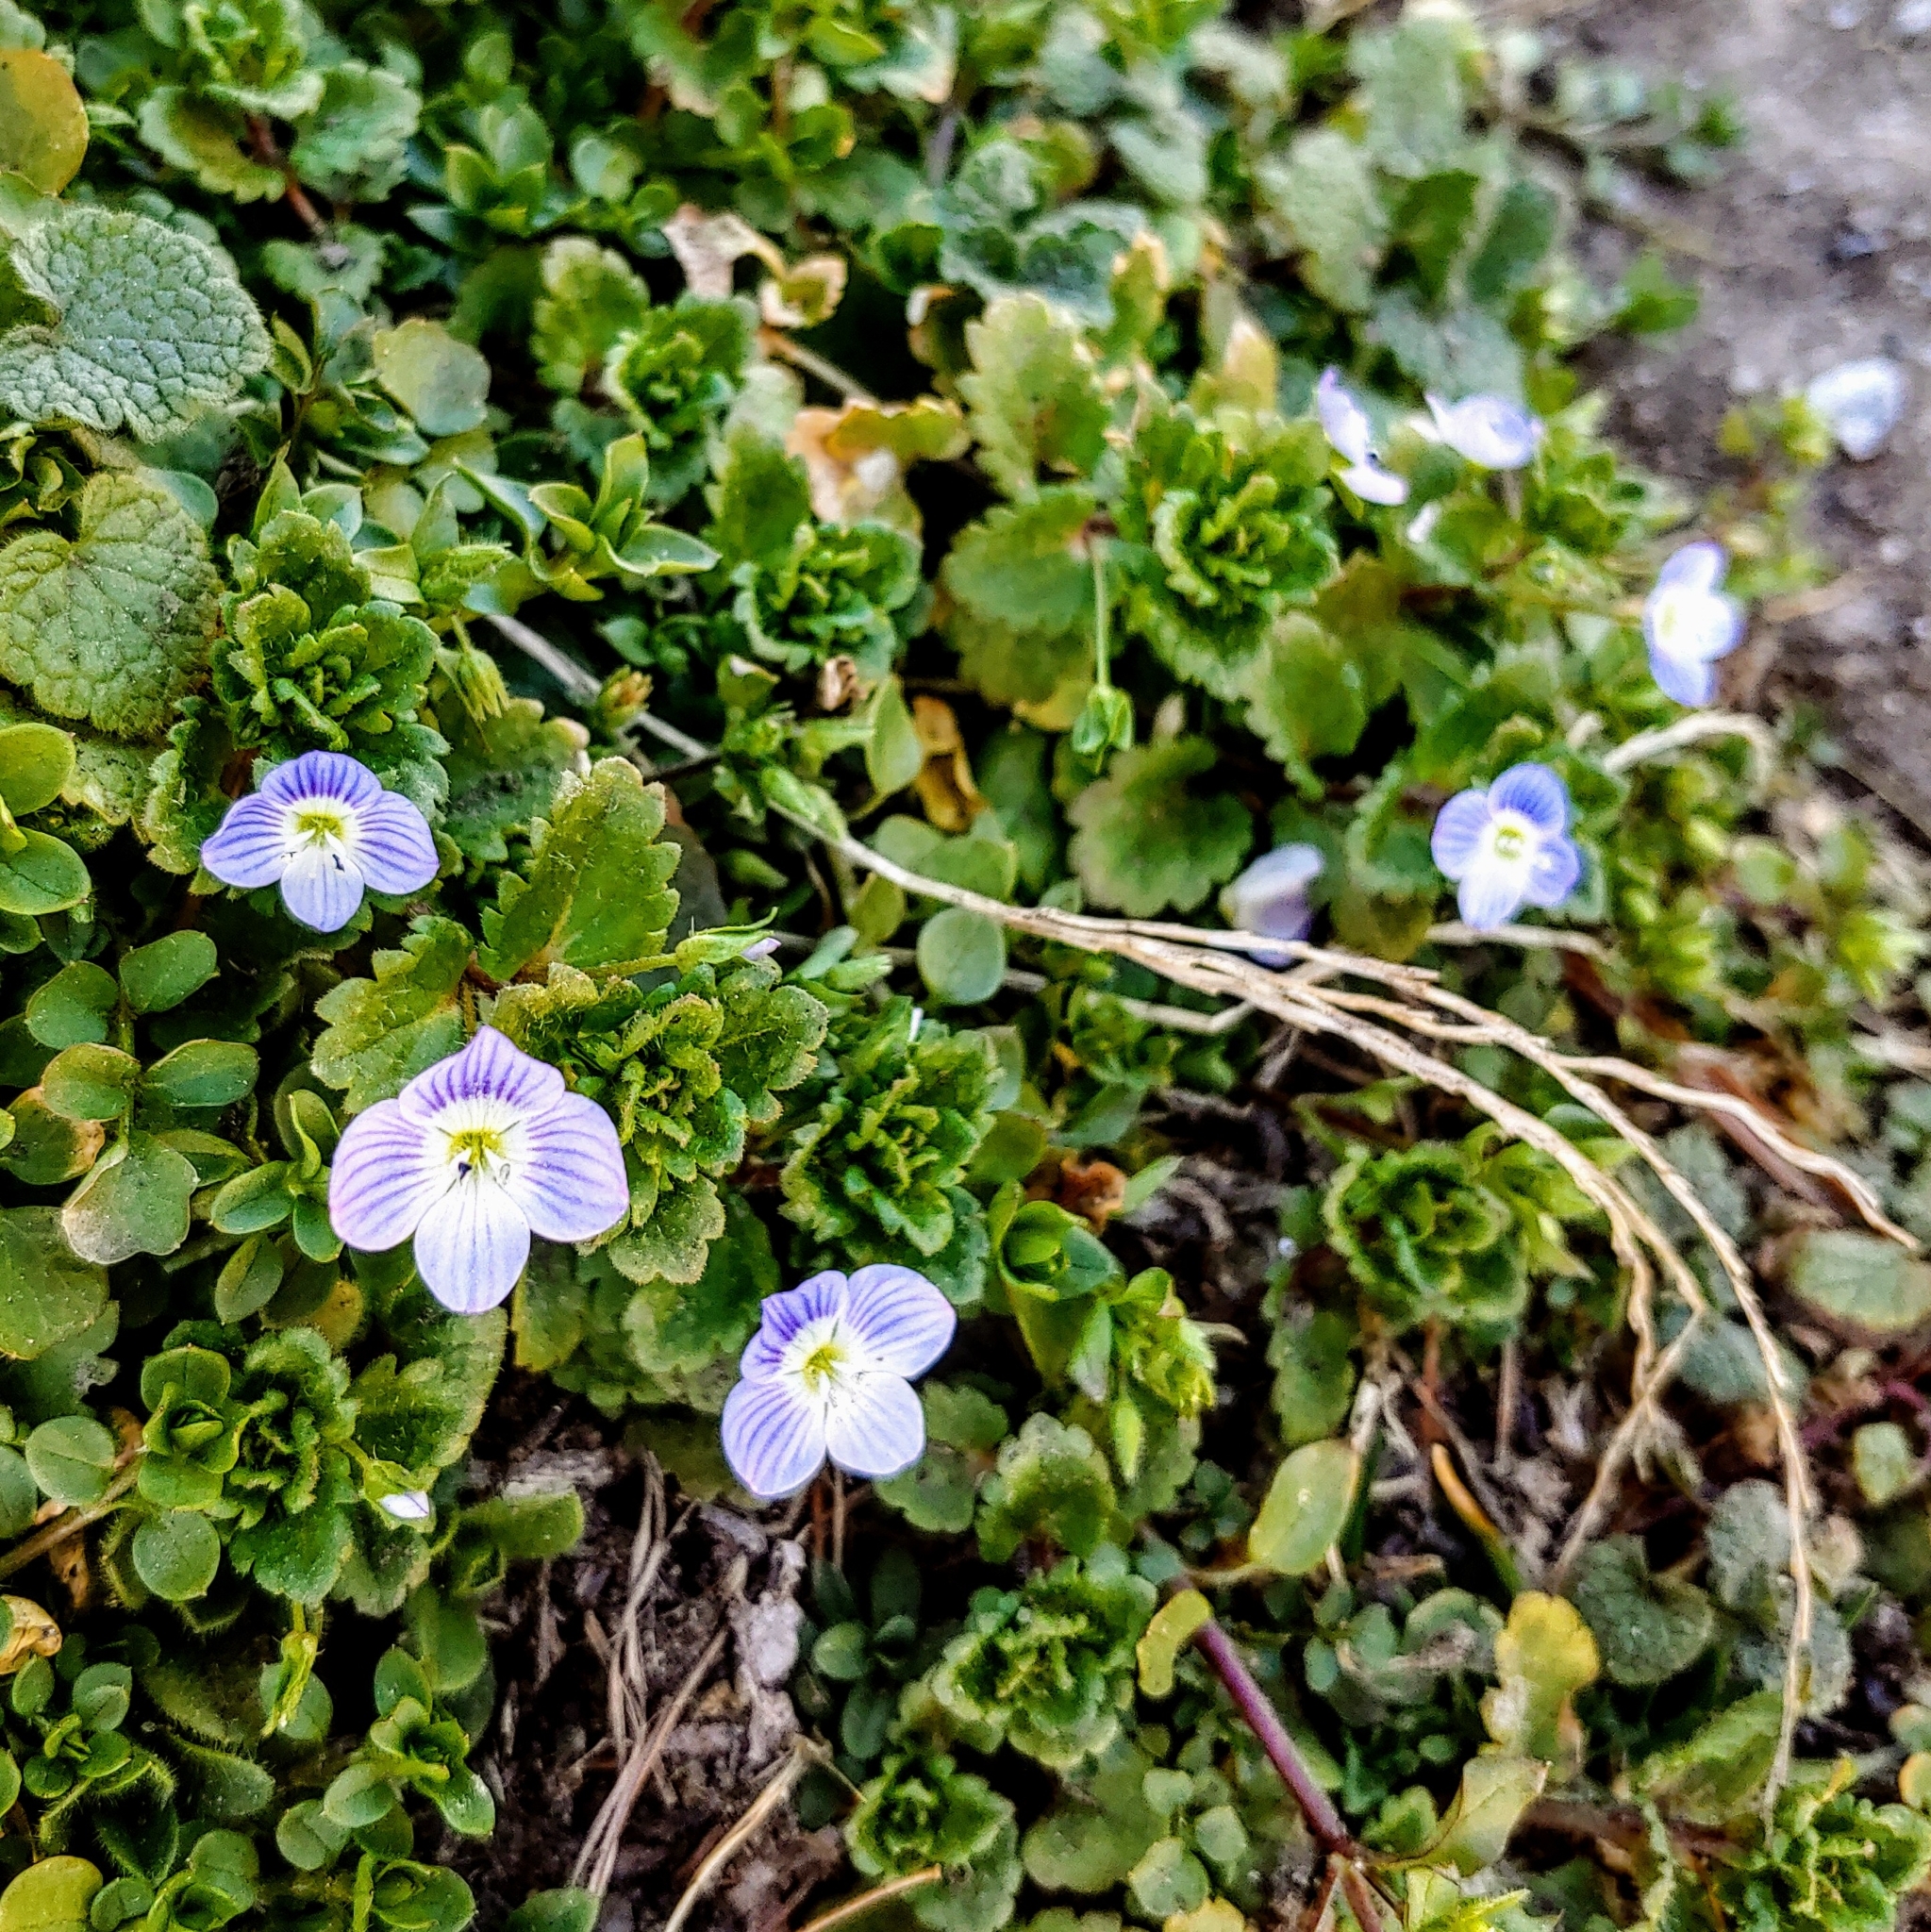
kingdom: Plantae
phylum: Tracheophyta
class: Magnoliopsida
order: Lamiales
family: Plantaginaceae
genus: Veronica
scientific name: Veronica persica
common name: Common field-speedwell
